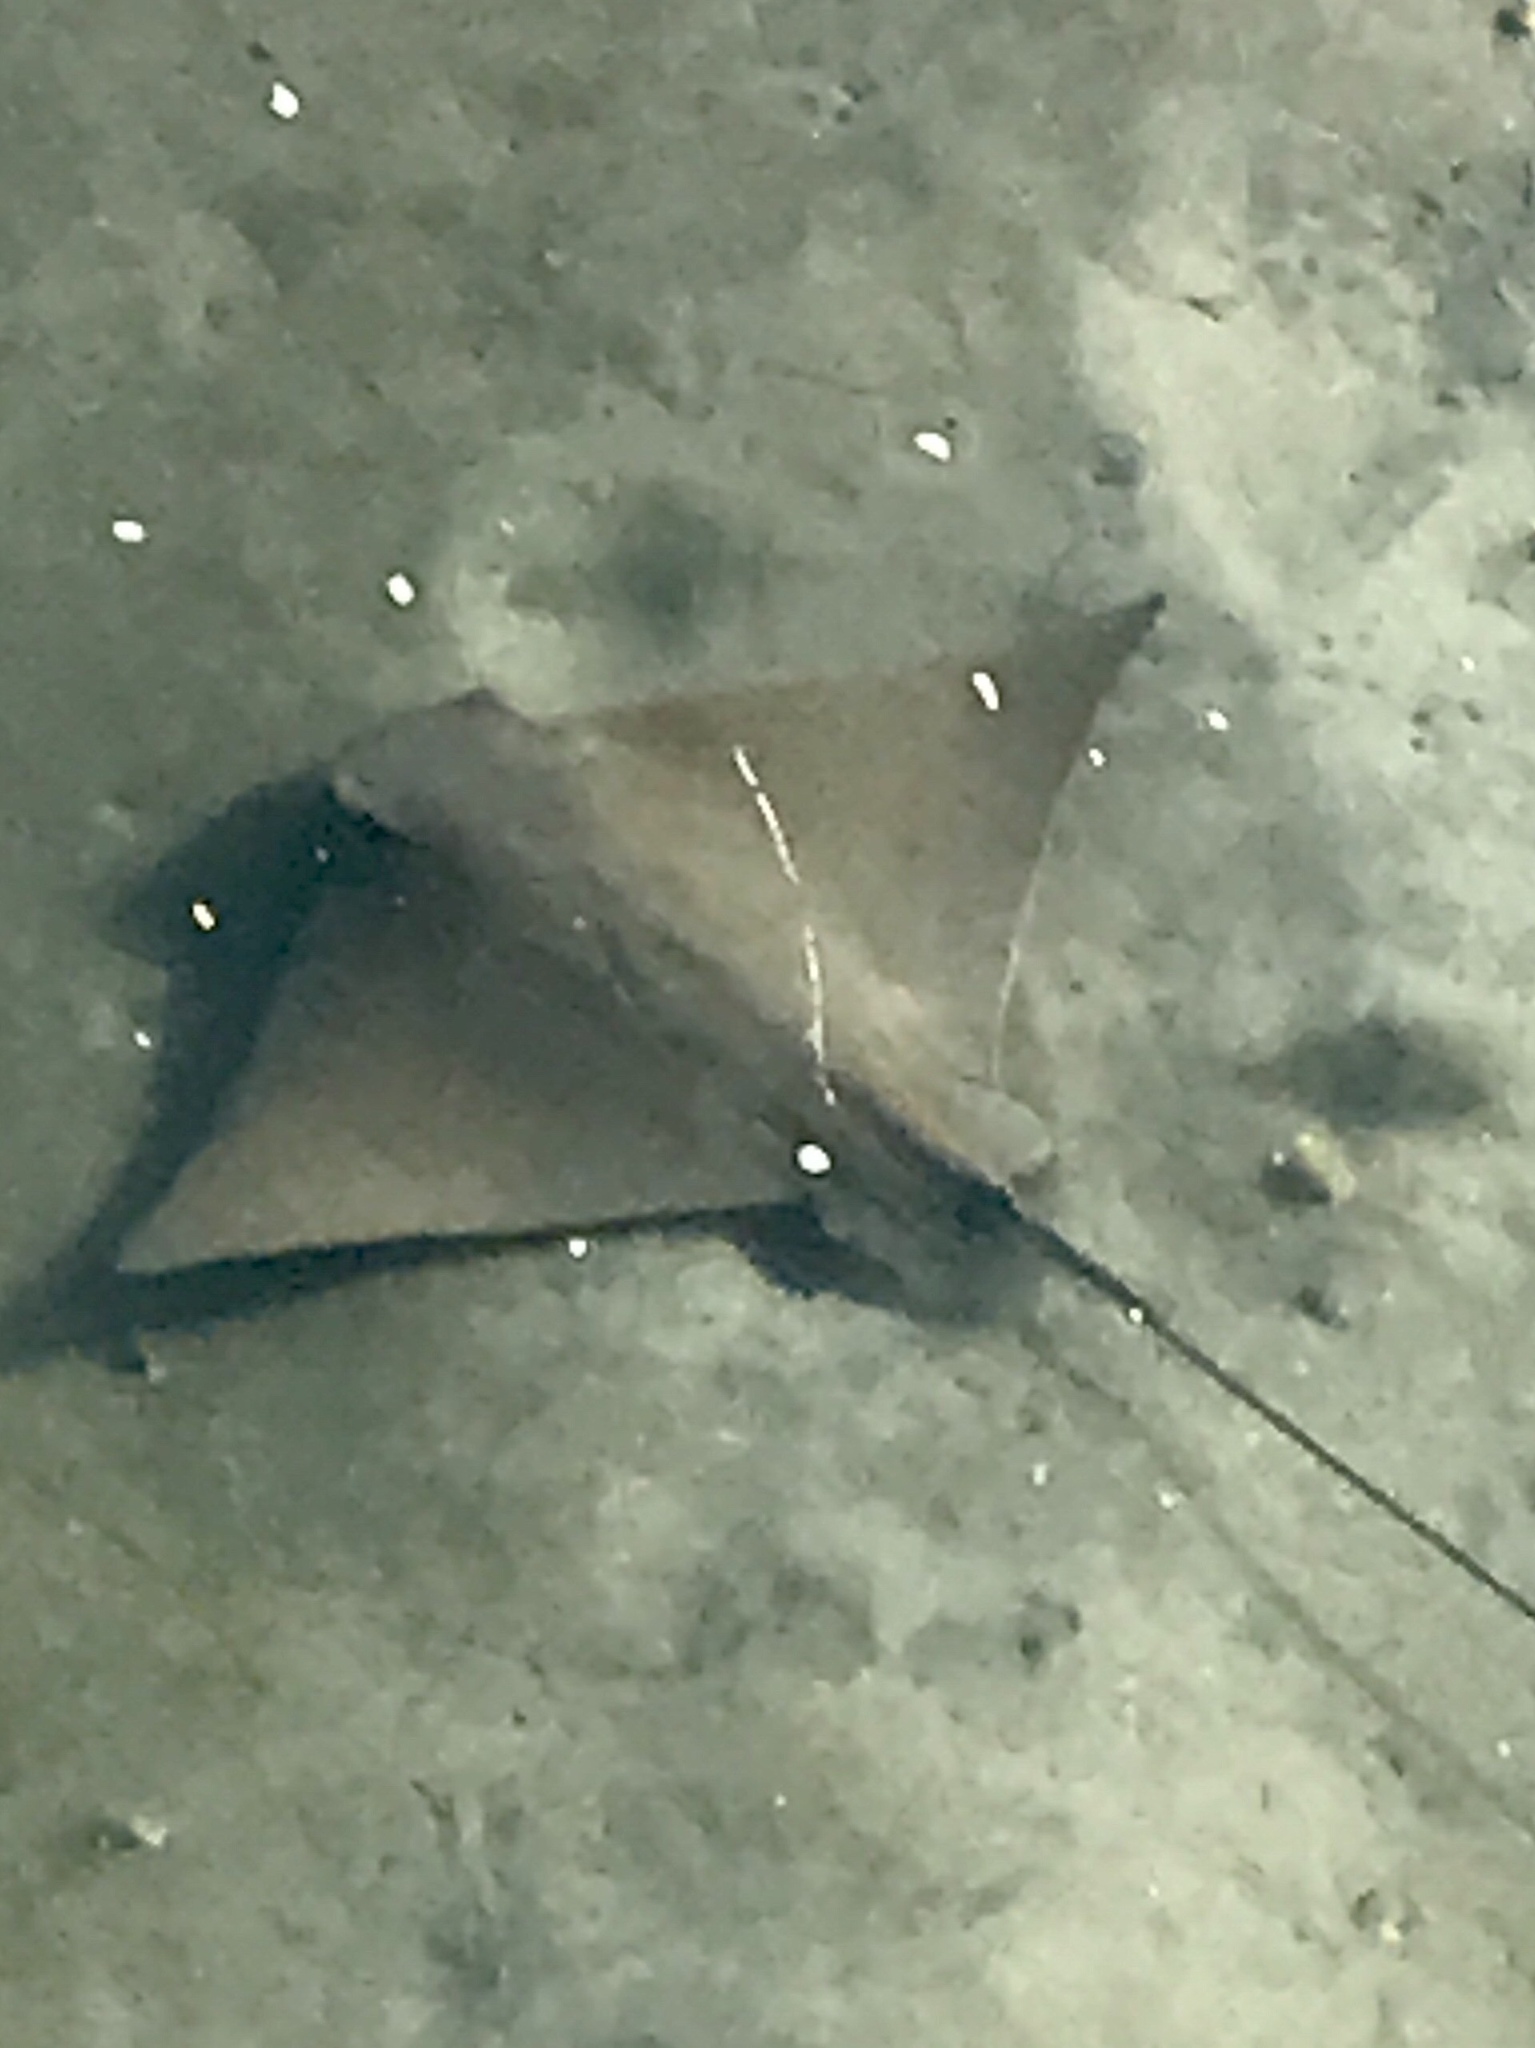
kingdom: Animalia
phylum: Chordata
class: Elasmobranchii
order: Myliobatiformes
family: Myliobatidae
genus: Myliobatis
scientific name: Myliobatis californica
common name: Bat ray
